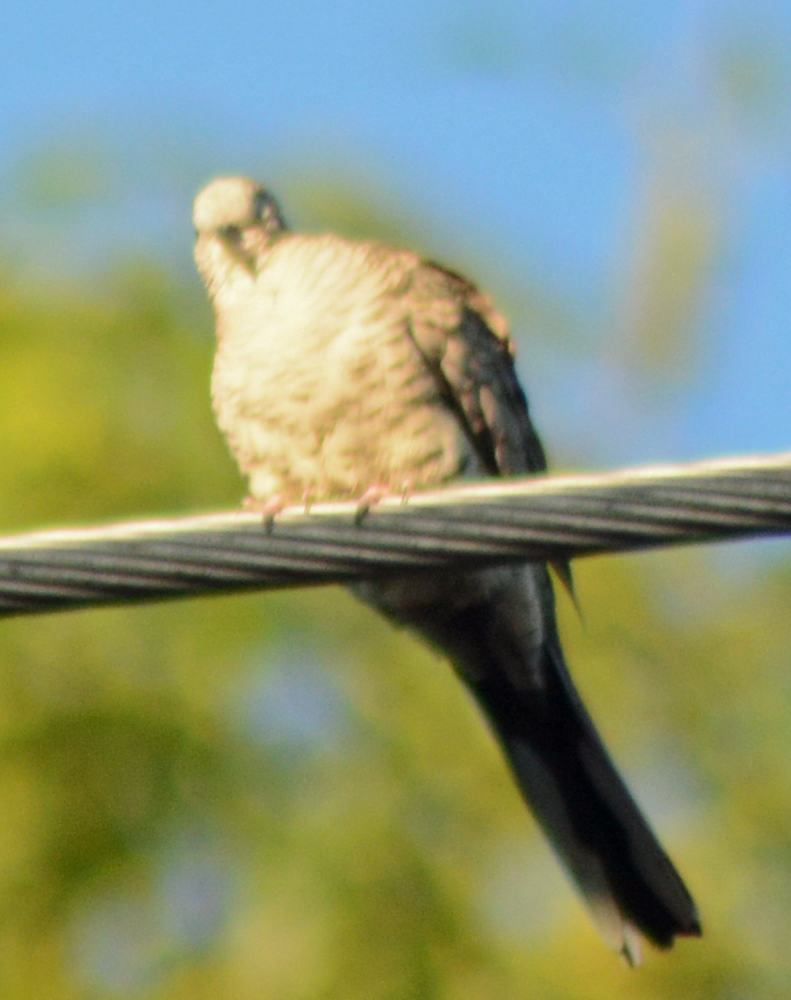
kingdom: Animalia
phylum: Chordata
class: Aves
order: Columbiformes
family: Columbidae
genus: Columbina
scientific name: Columbina inca
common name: Inca dove
